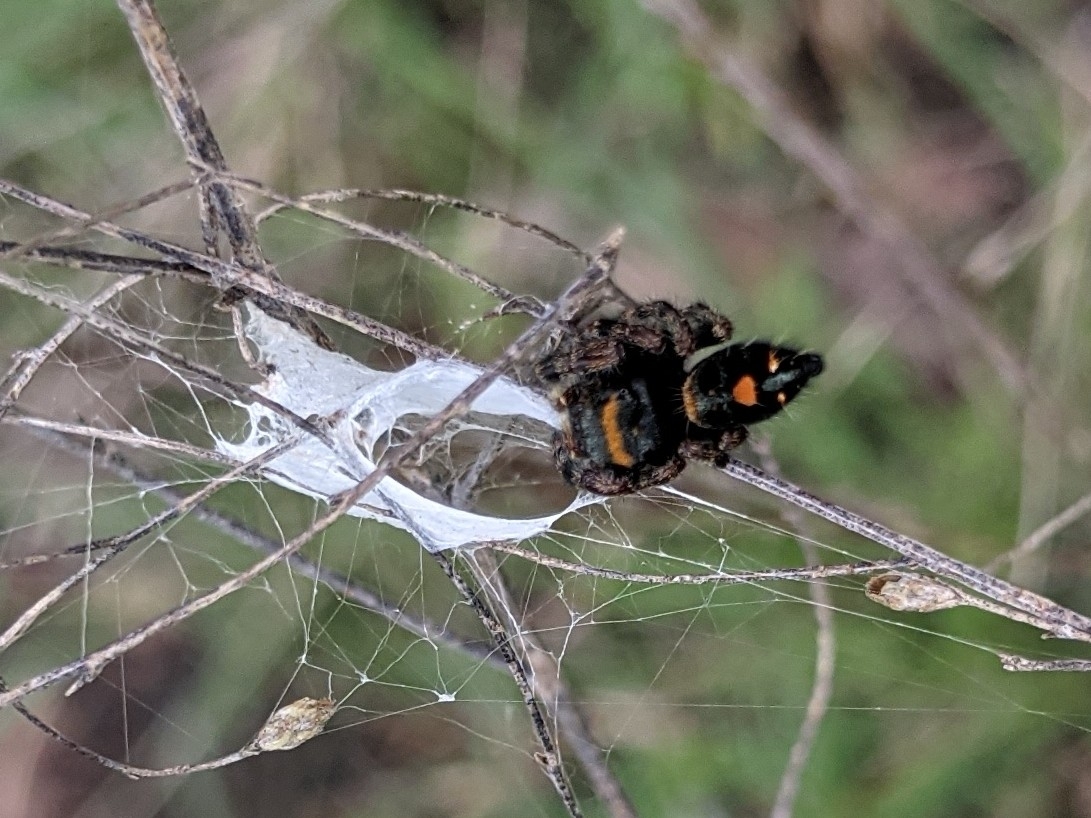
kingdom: Animalia
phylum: Arthropoda
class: Arachnida
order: Araneae
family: Salticidae
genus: Phidippus
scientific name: Phidippus audax
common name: Bold jumper
